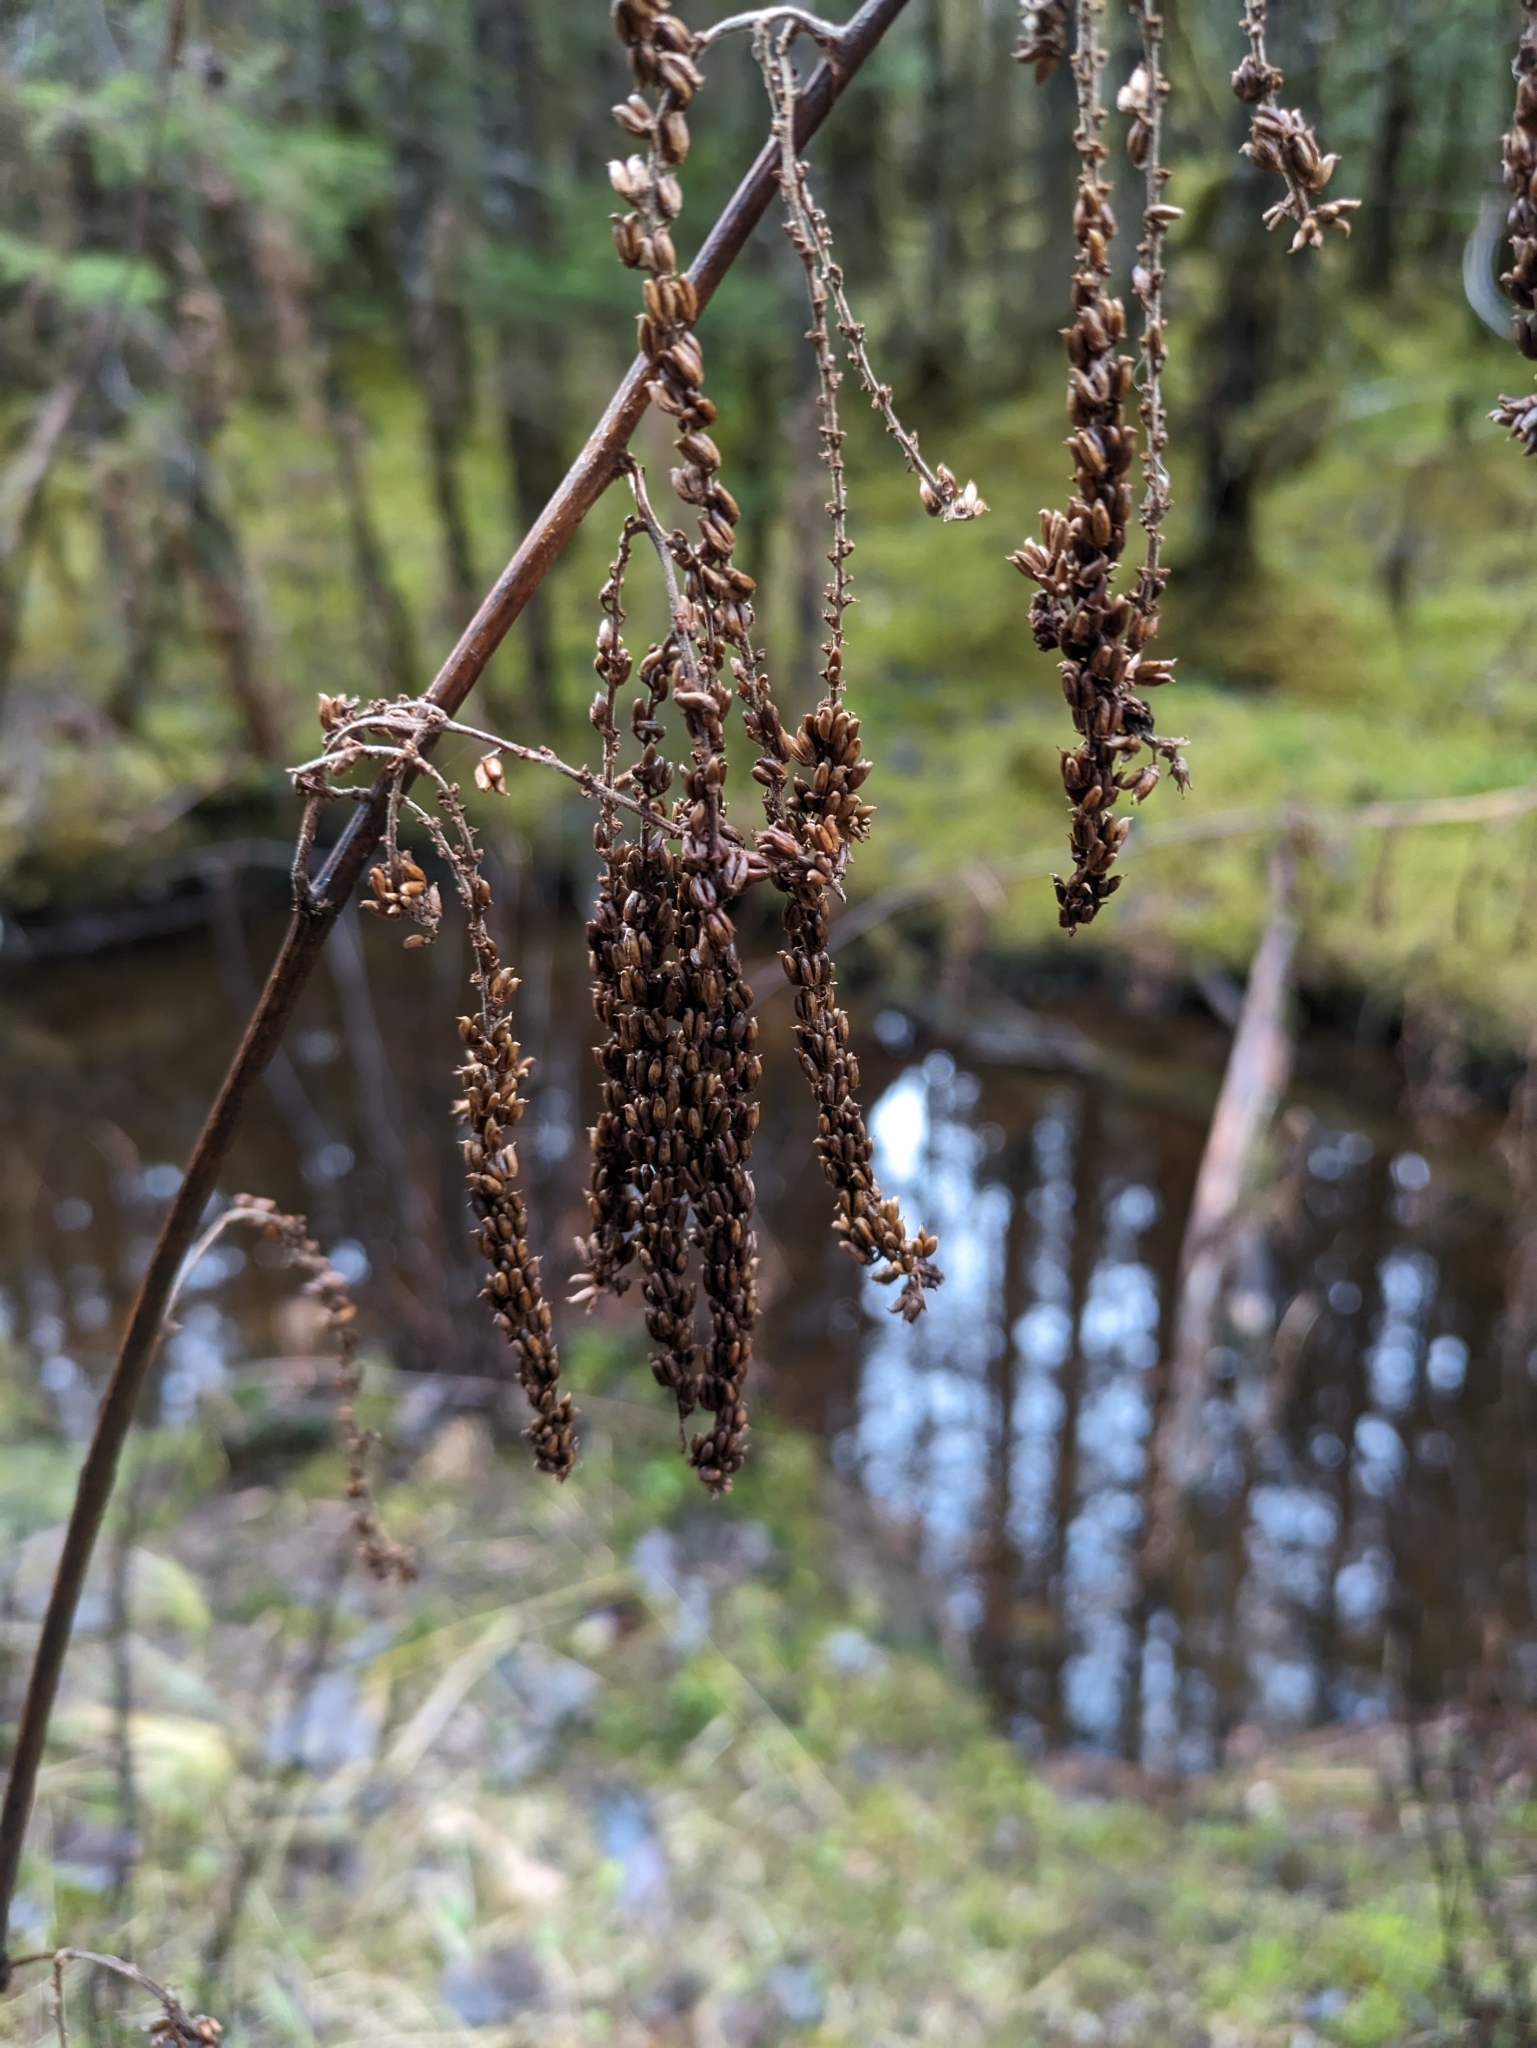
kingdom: Plantae
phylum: Tracheophyta
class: Magnoliopsida
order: Rosales
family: Rosaceae
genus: Aruncus
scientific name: Aruncus dioicus
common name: Buck's-beard
